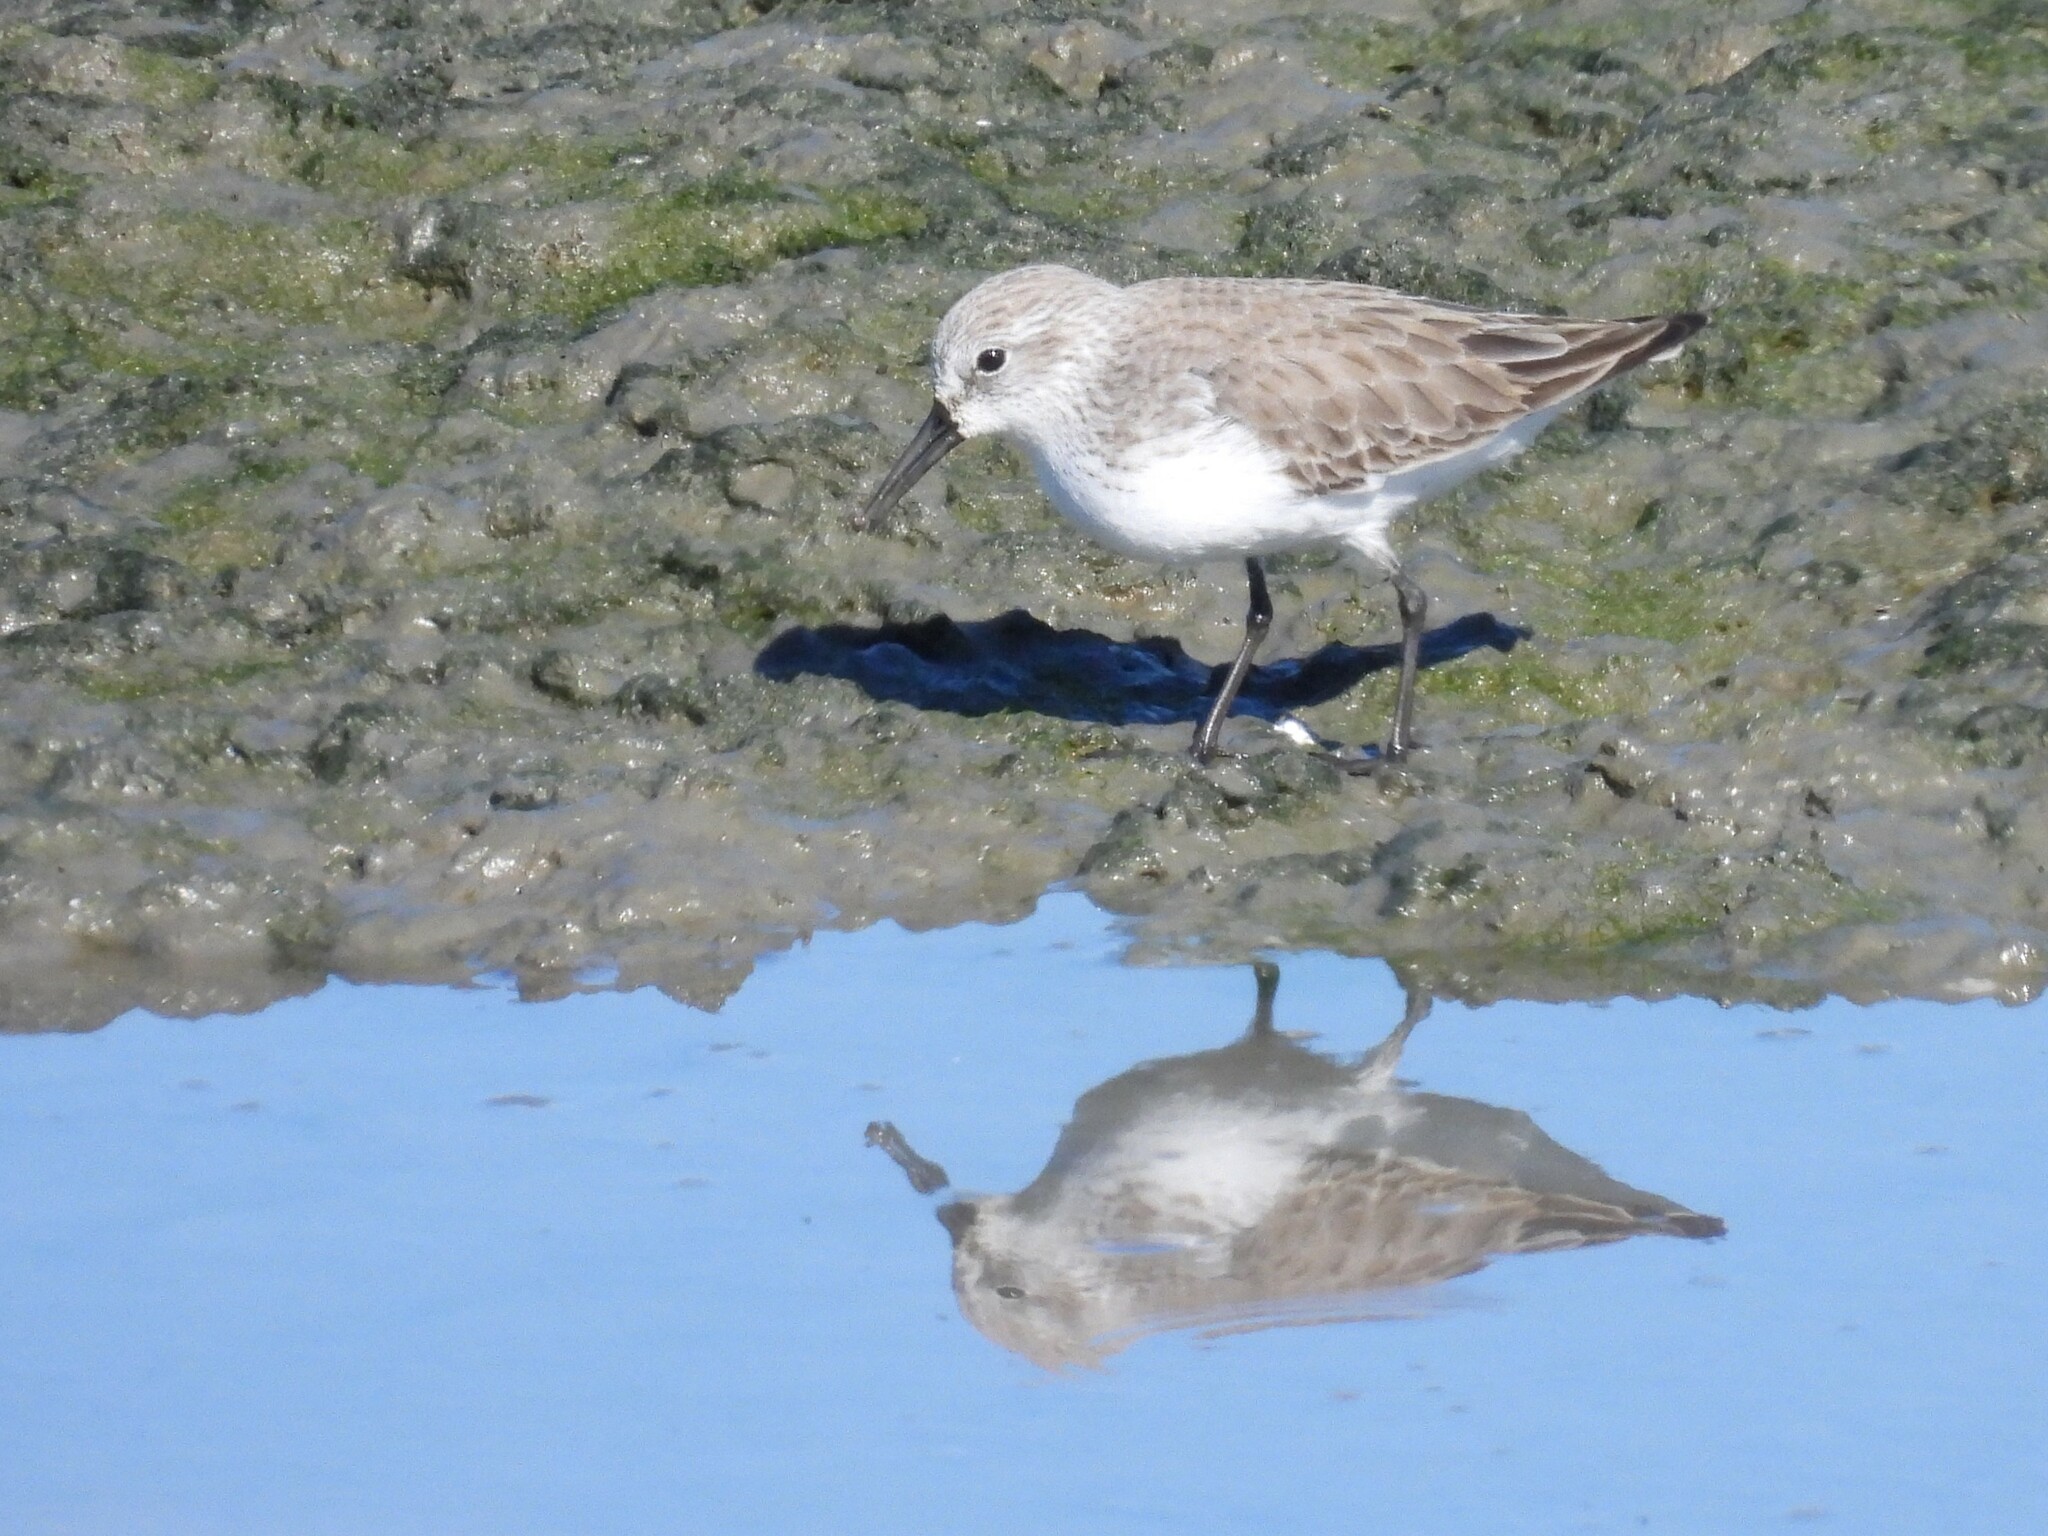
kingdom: Animalia
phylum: Chordata
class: Aves
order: Charadriiformes
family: Scolopacidae
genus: Calidris
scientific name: Calidris mauri
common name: Western sandpiper
